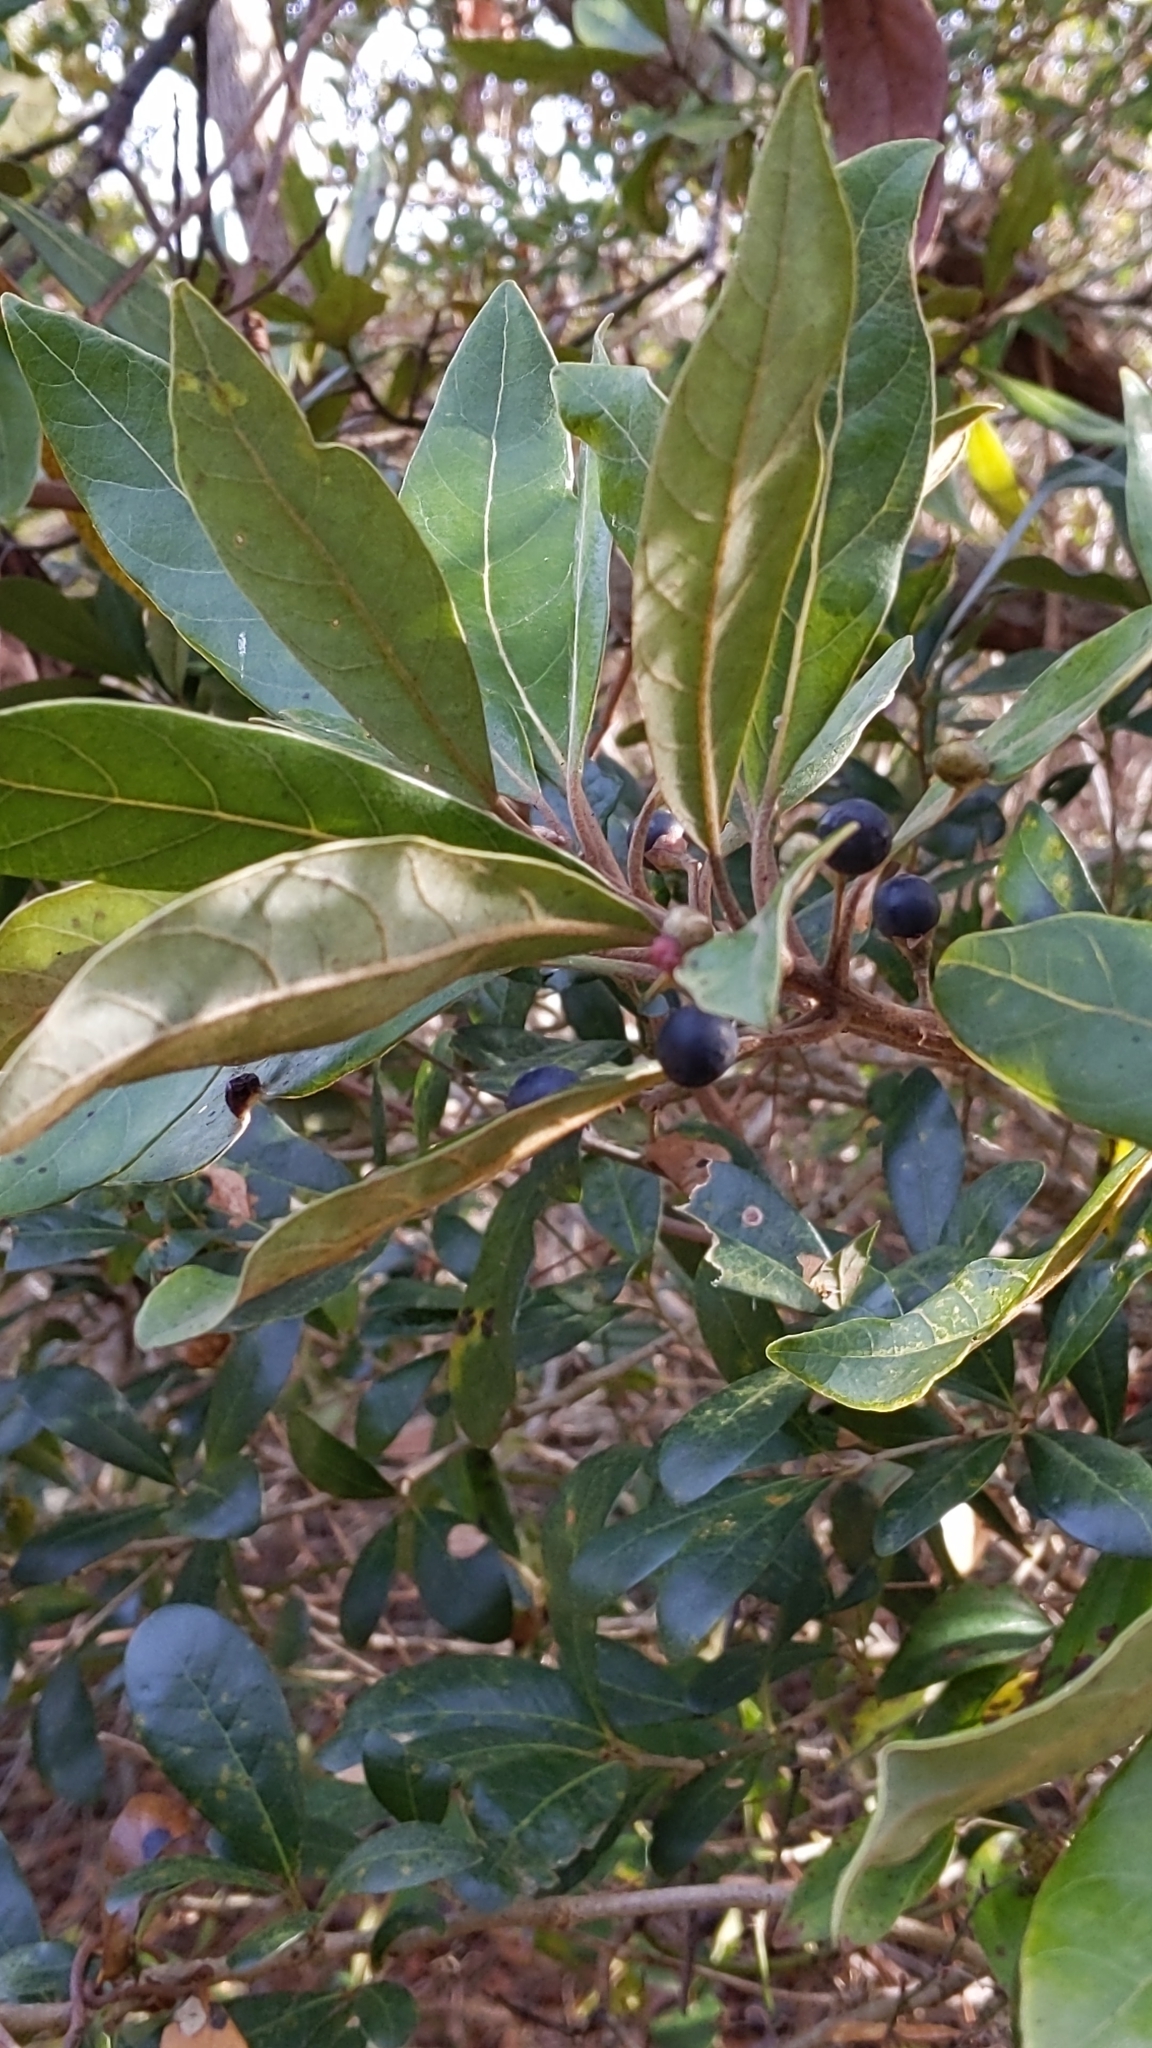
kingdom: Plantae
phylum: Tracheophyta
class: Magnoliopsida
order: Laurales
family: Lauraceae
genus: Persea
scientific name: Persea palustris
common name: Swampbay
